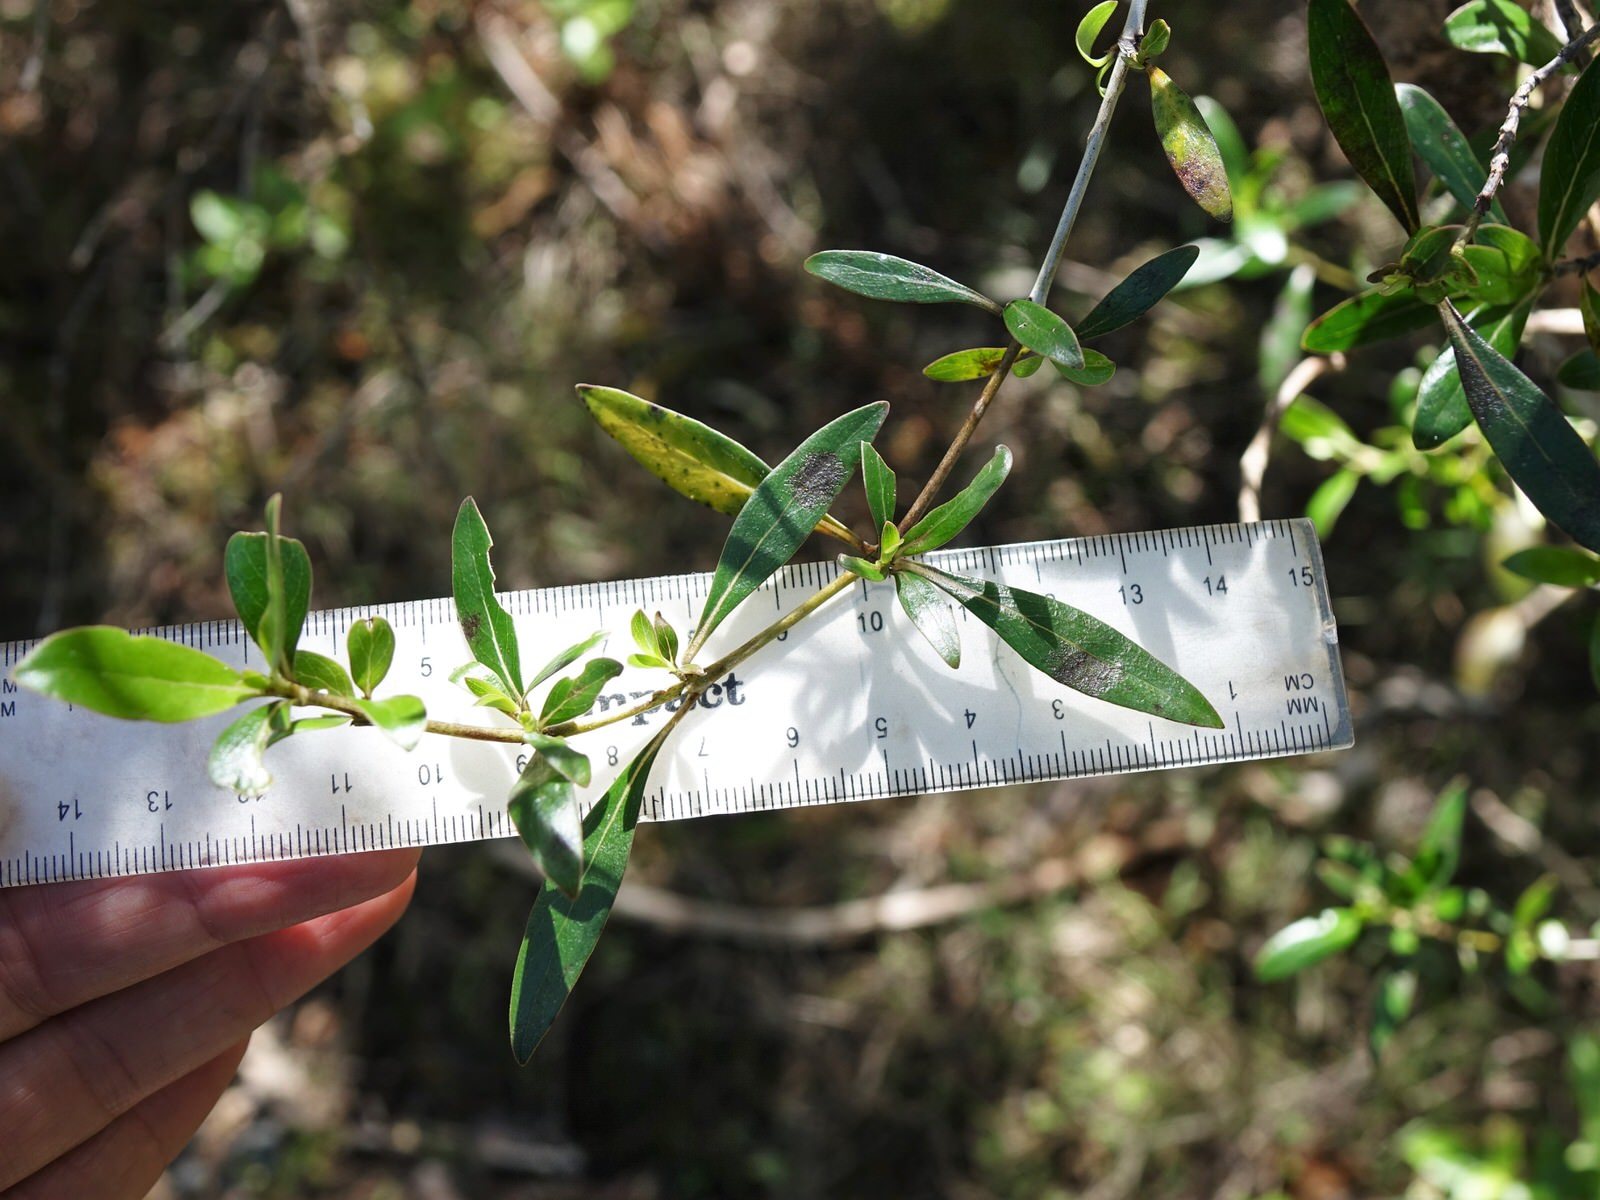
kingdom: Plantae
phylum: Tracheophyta
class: Magnoliopsida
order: Gentianales
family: Rubiaceae
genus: Coprosma
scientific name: Coprosma cunninghamii
